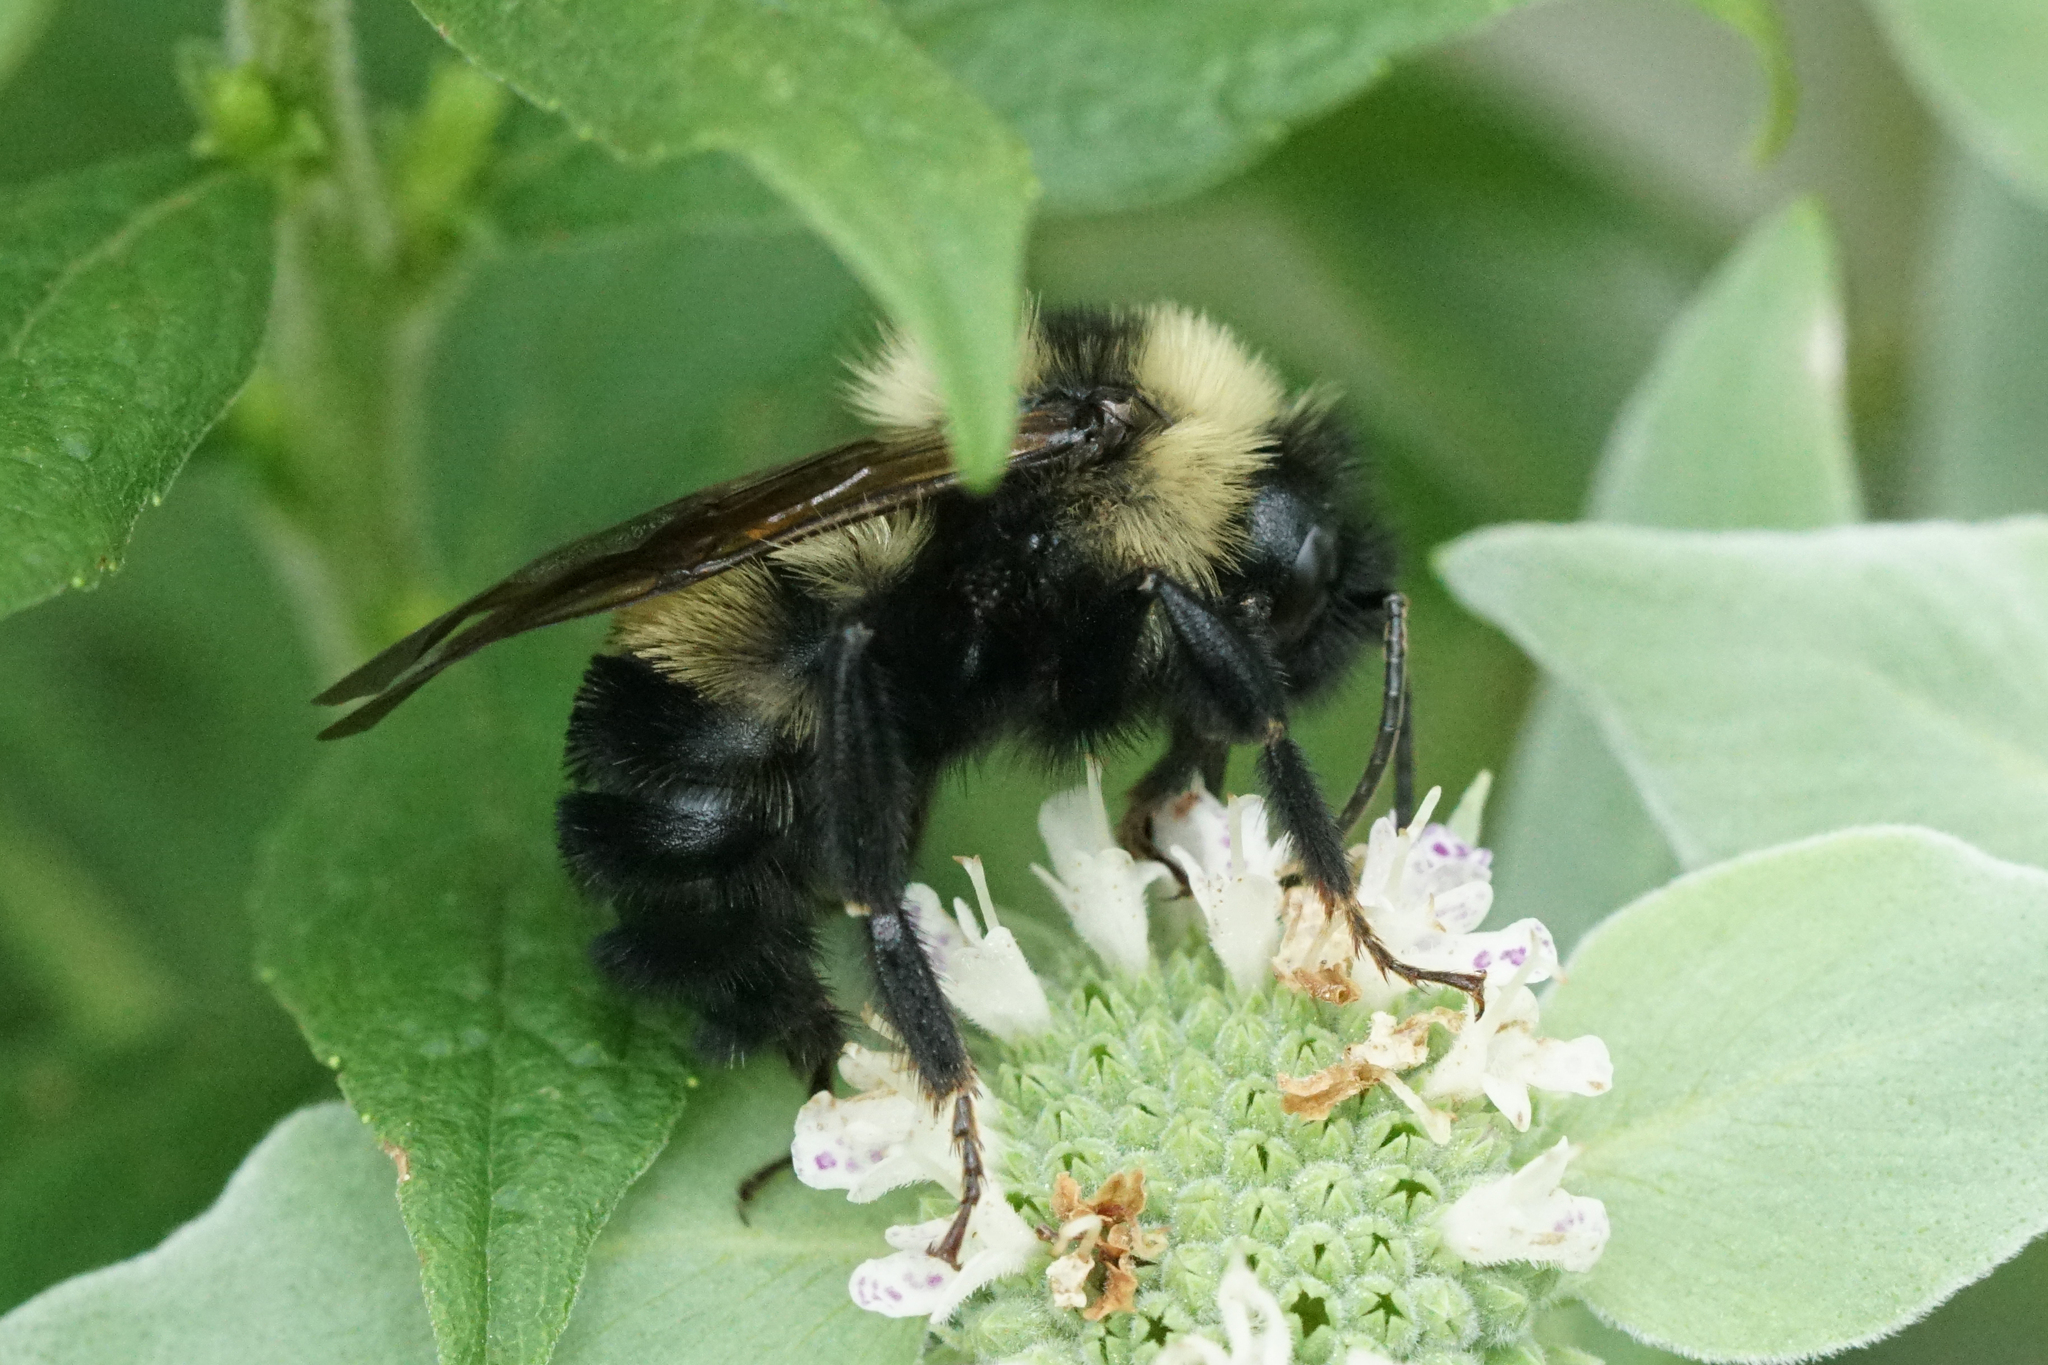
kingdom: Animalia
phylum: Arthropoda
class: Insecta
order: Hymenoptera
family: Apidae
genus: Bombus
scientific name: Bombus citrinus
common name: Lemon cuckoo bumble bee
